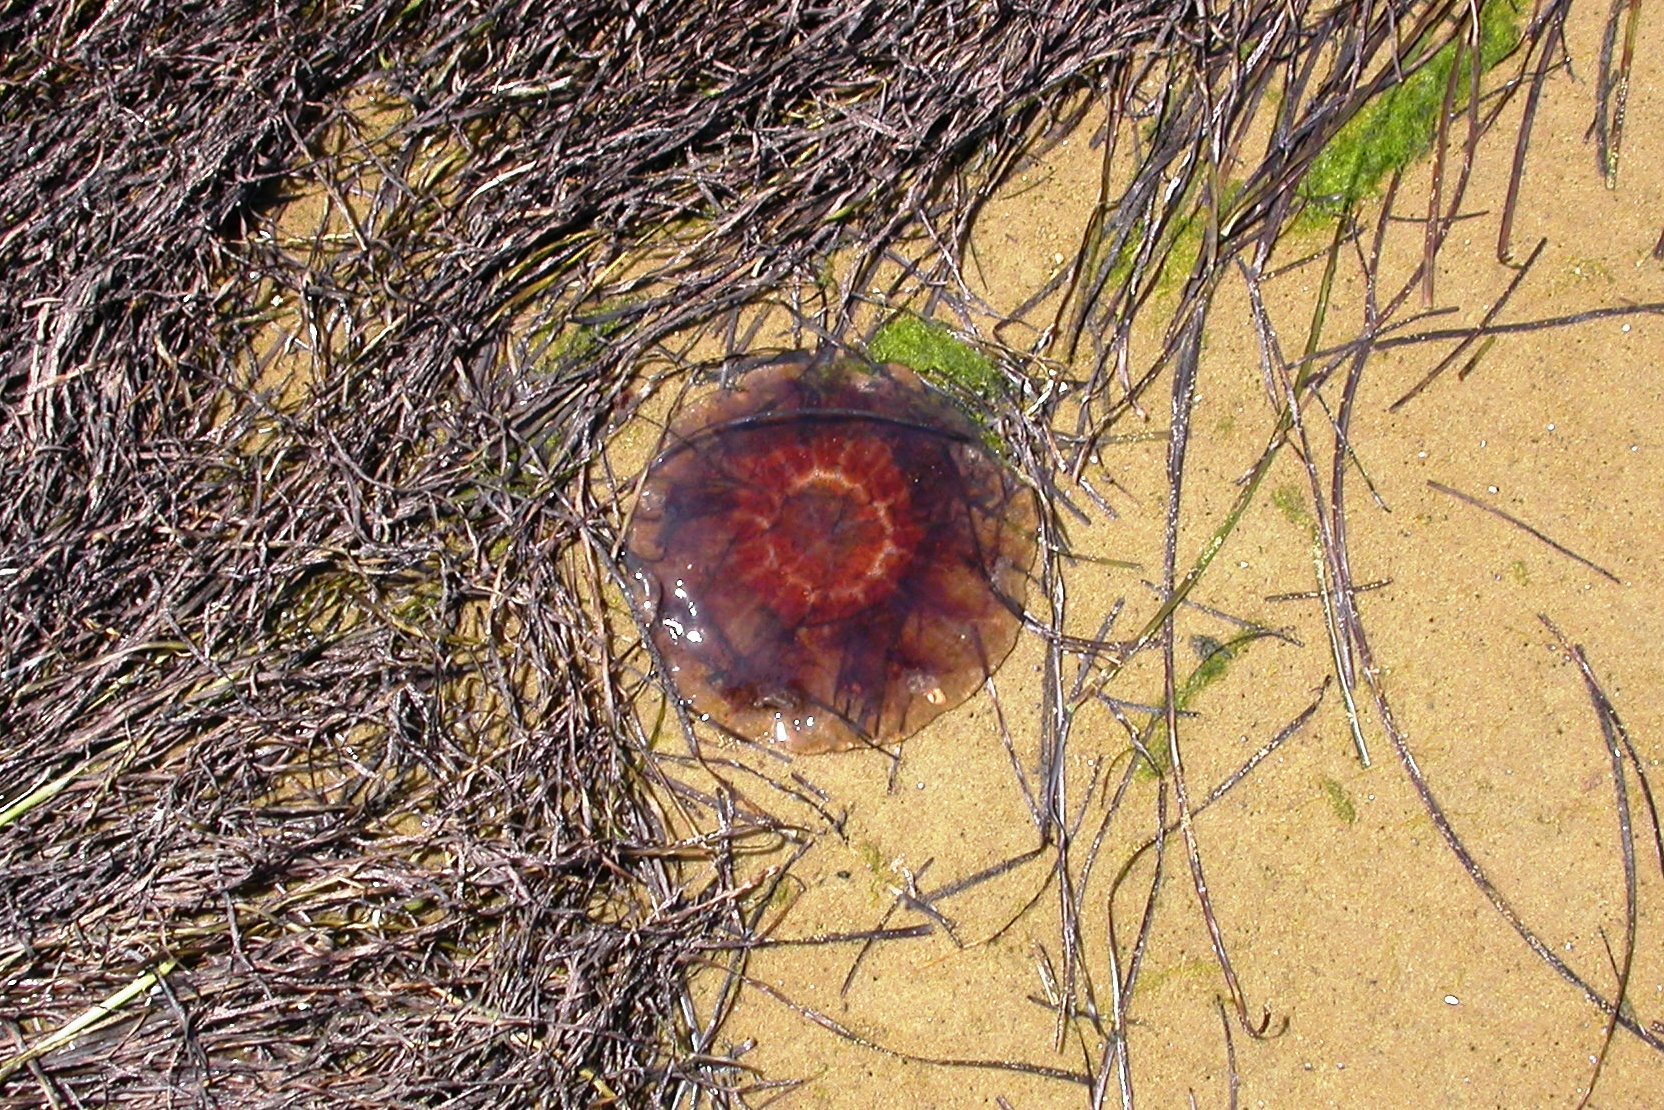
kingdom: Animalia
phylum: Cnidaria
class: Scyphozoa
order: Semaeostomeae
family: Cyaneidae
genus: Cyanea
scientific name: Cyanea
